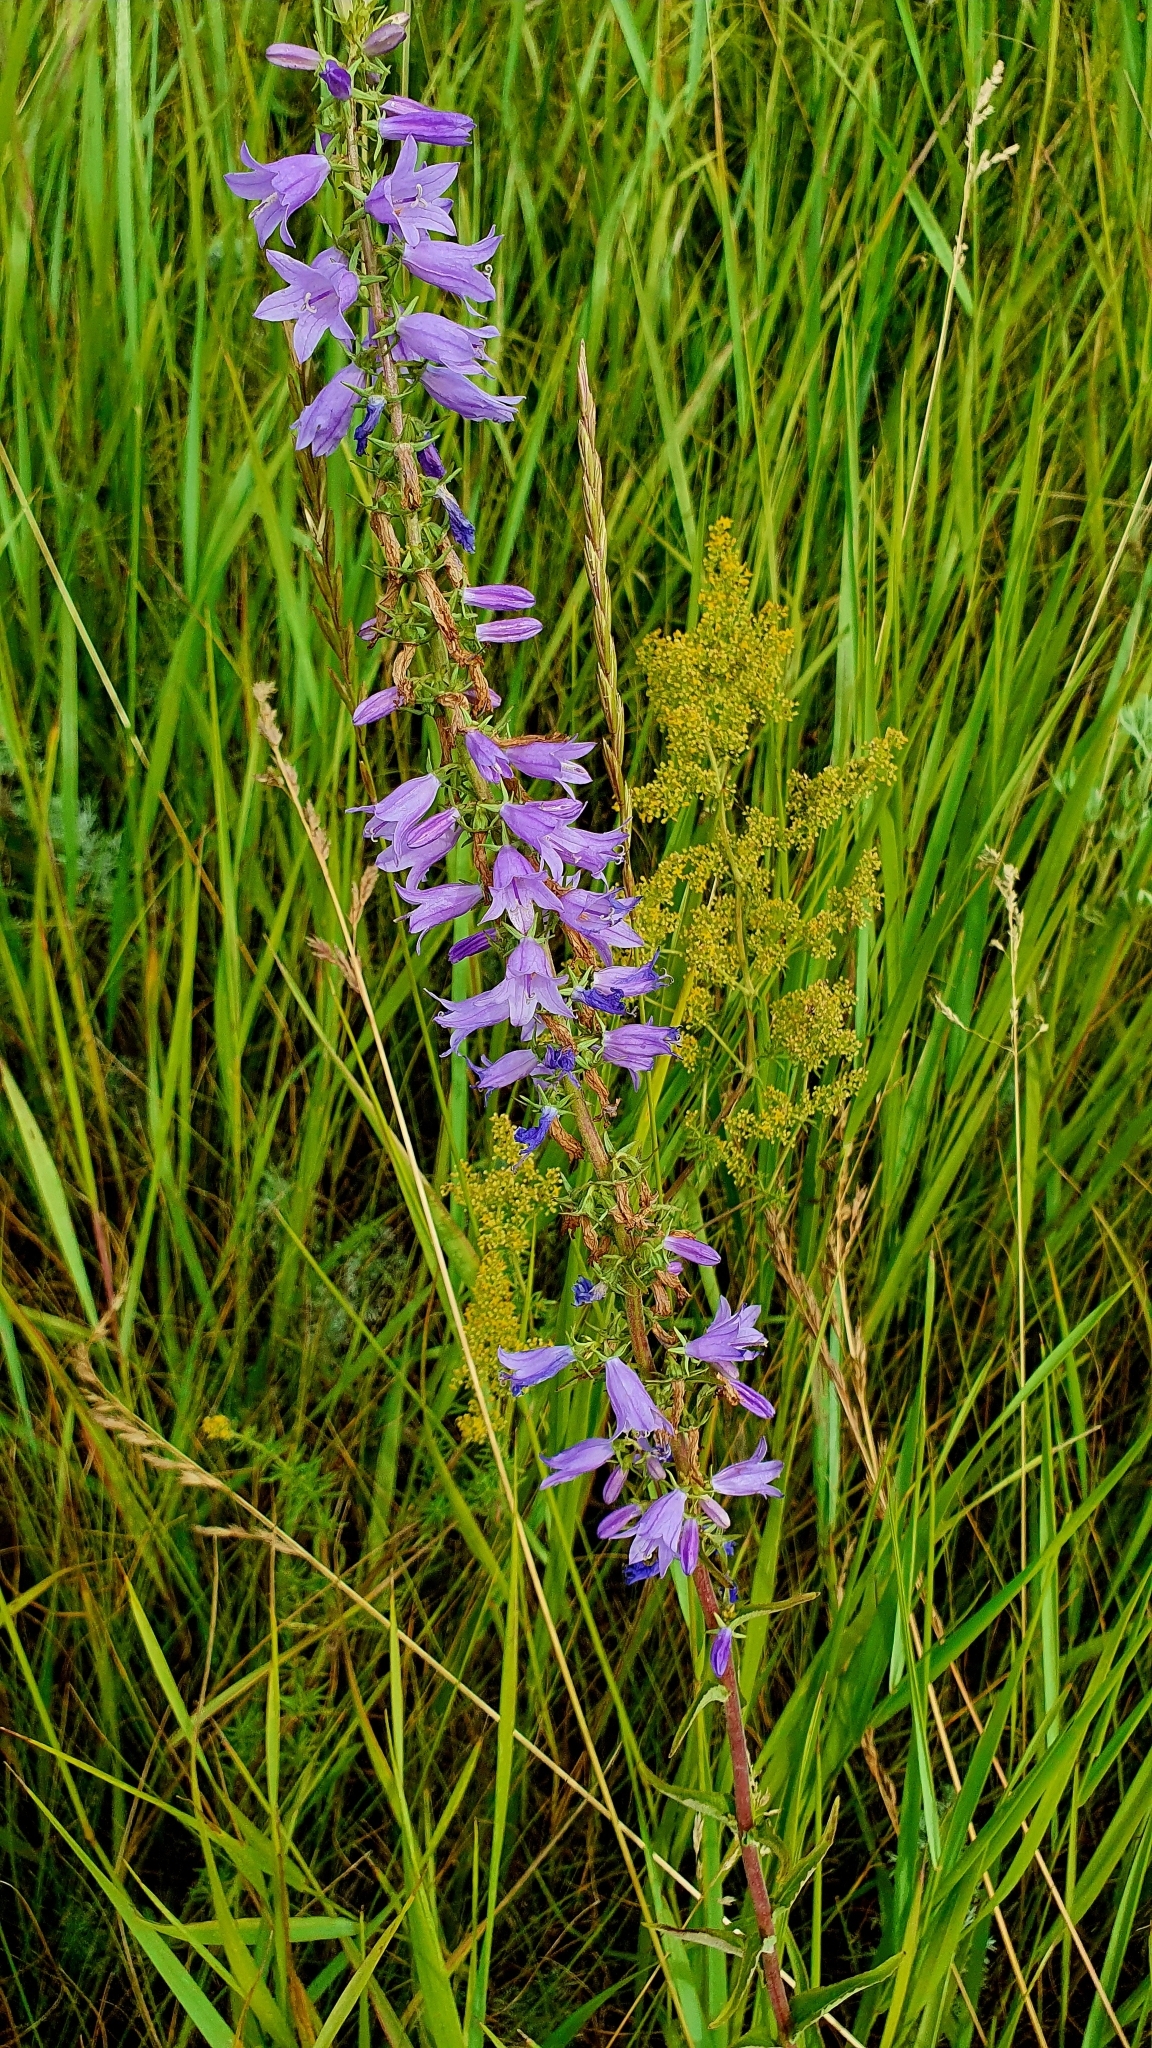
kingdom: Plantae
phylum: Tracheophyta
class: Magnoliopsida
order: Asterales
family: Campanulaceae
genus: Campanula
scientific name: Campanula bononiensis
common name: Pale bellflower
